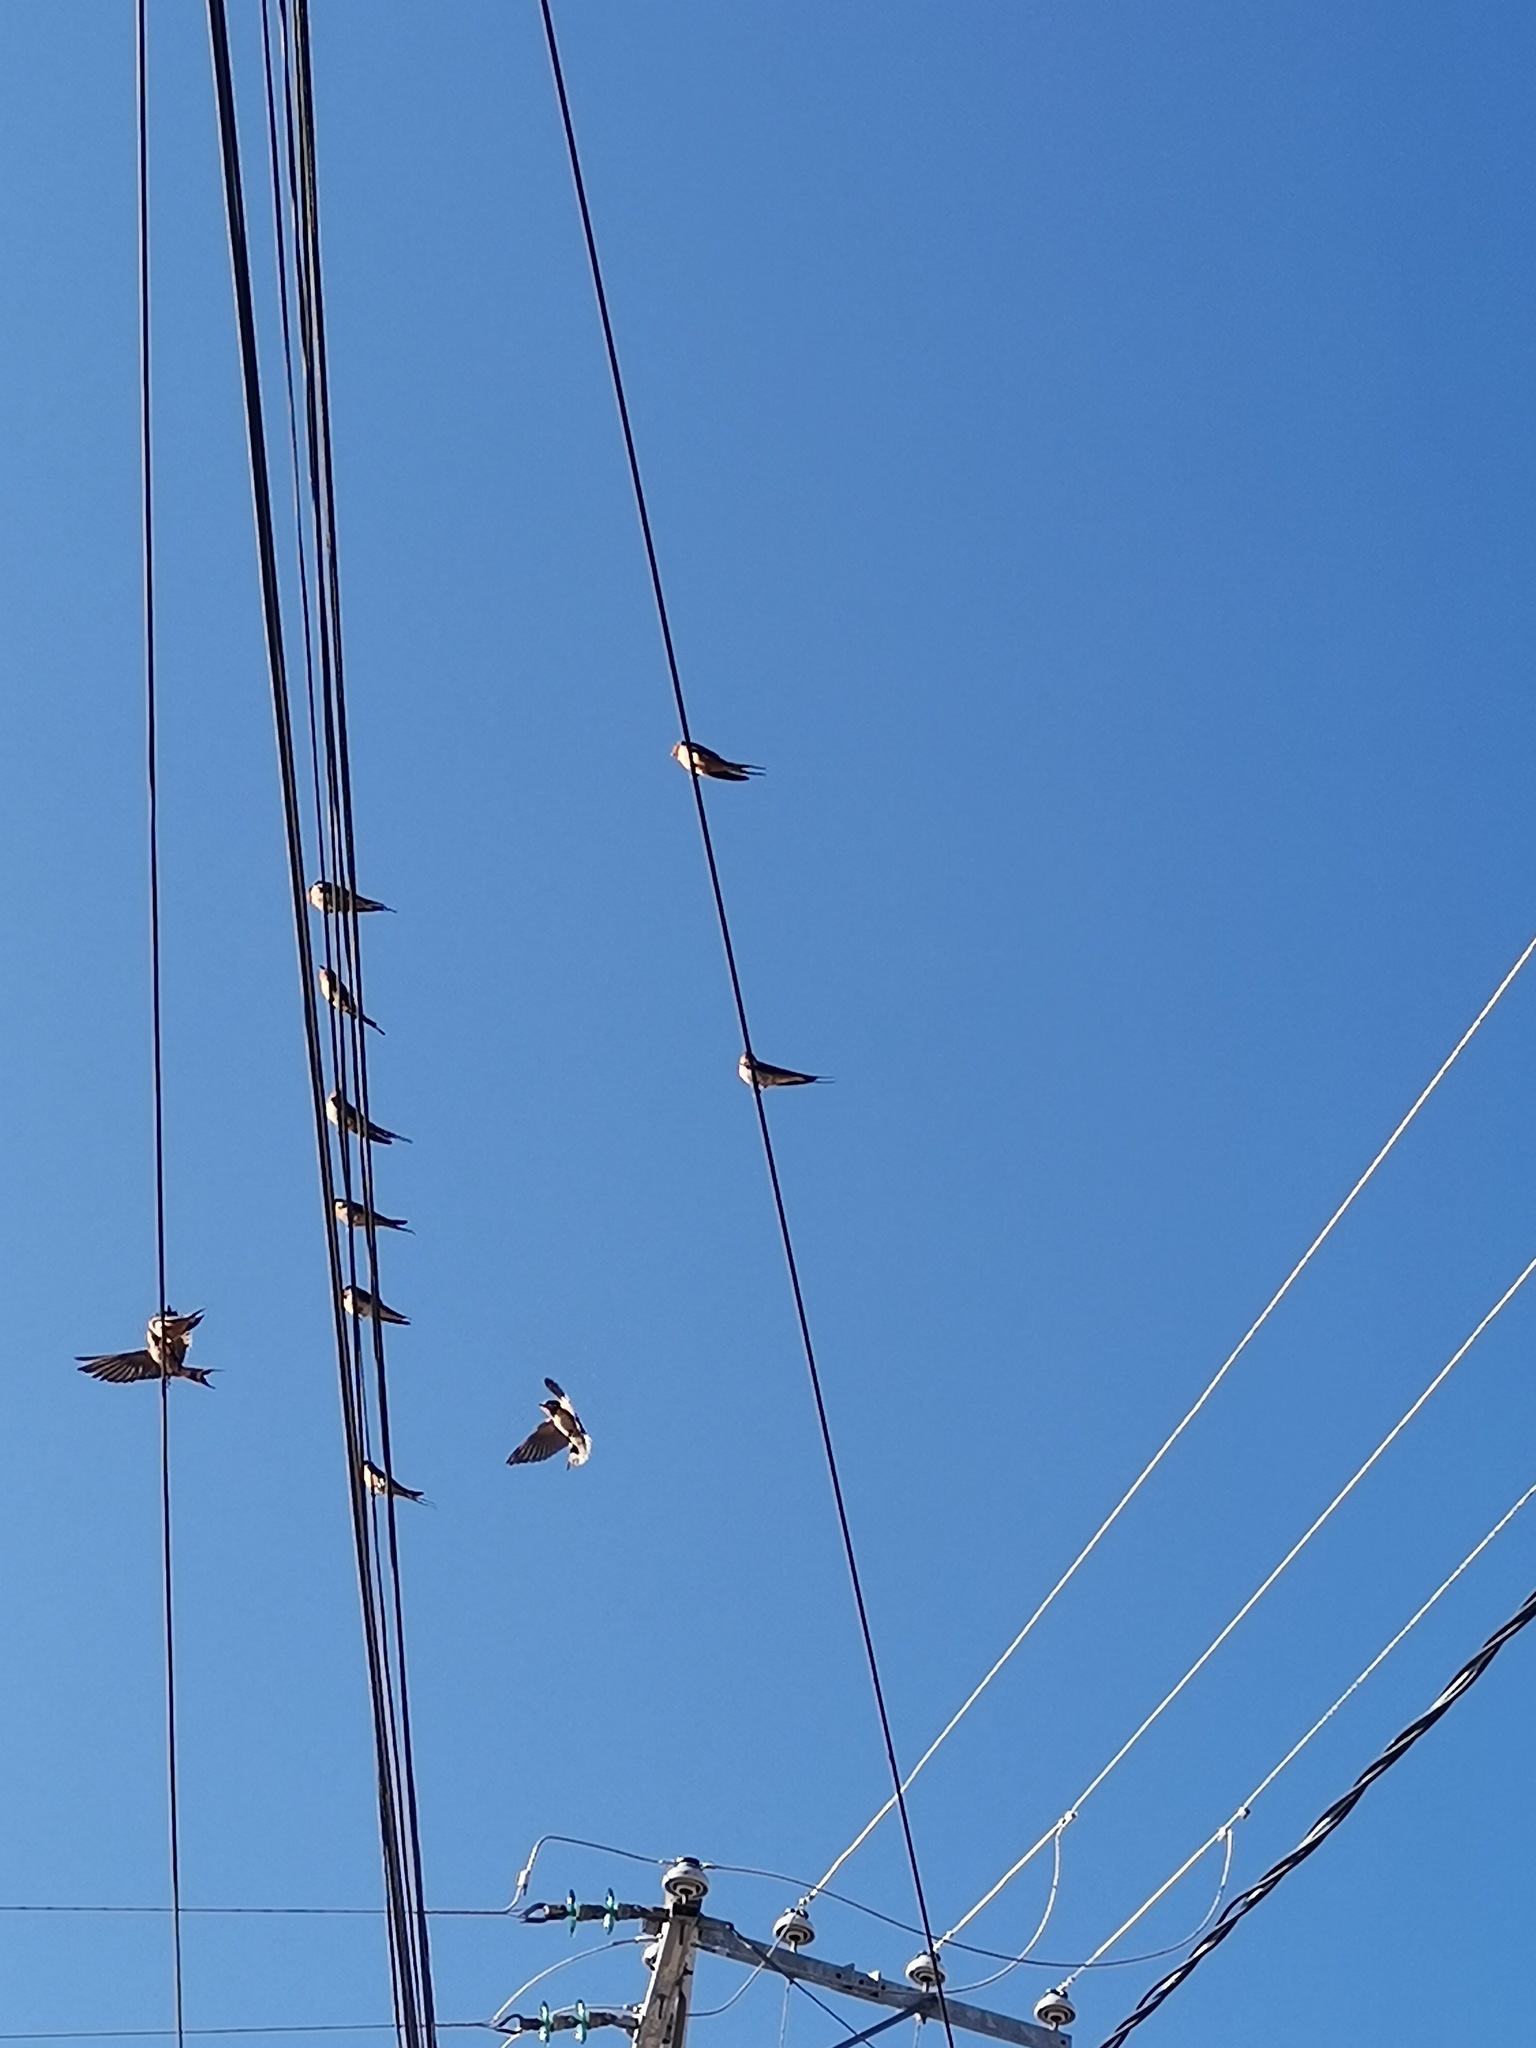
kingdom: Animalia
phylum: Chordata
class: Aves
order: Passeriformes
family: Hirundinidae
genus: Hirundo
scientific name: Hirundo rustica
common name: Barn swallow
